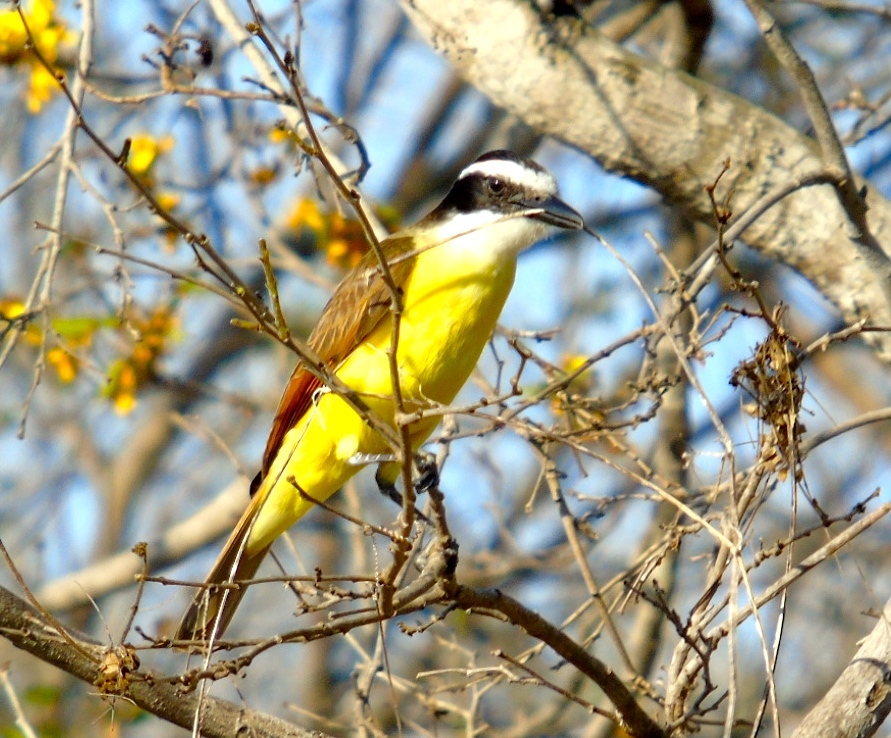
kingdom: Animalia
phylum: Chordata
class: Aves
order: Passeriformes
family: Tyrannidae
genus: Pitangus
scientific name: Pitangus sulphuratus
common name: Great kiskadee
